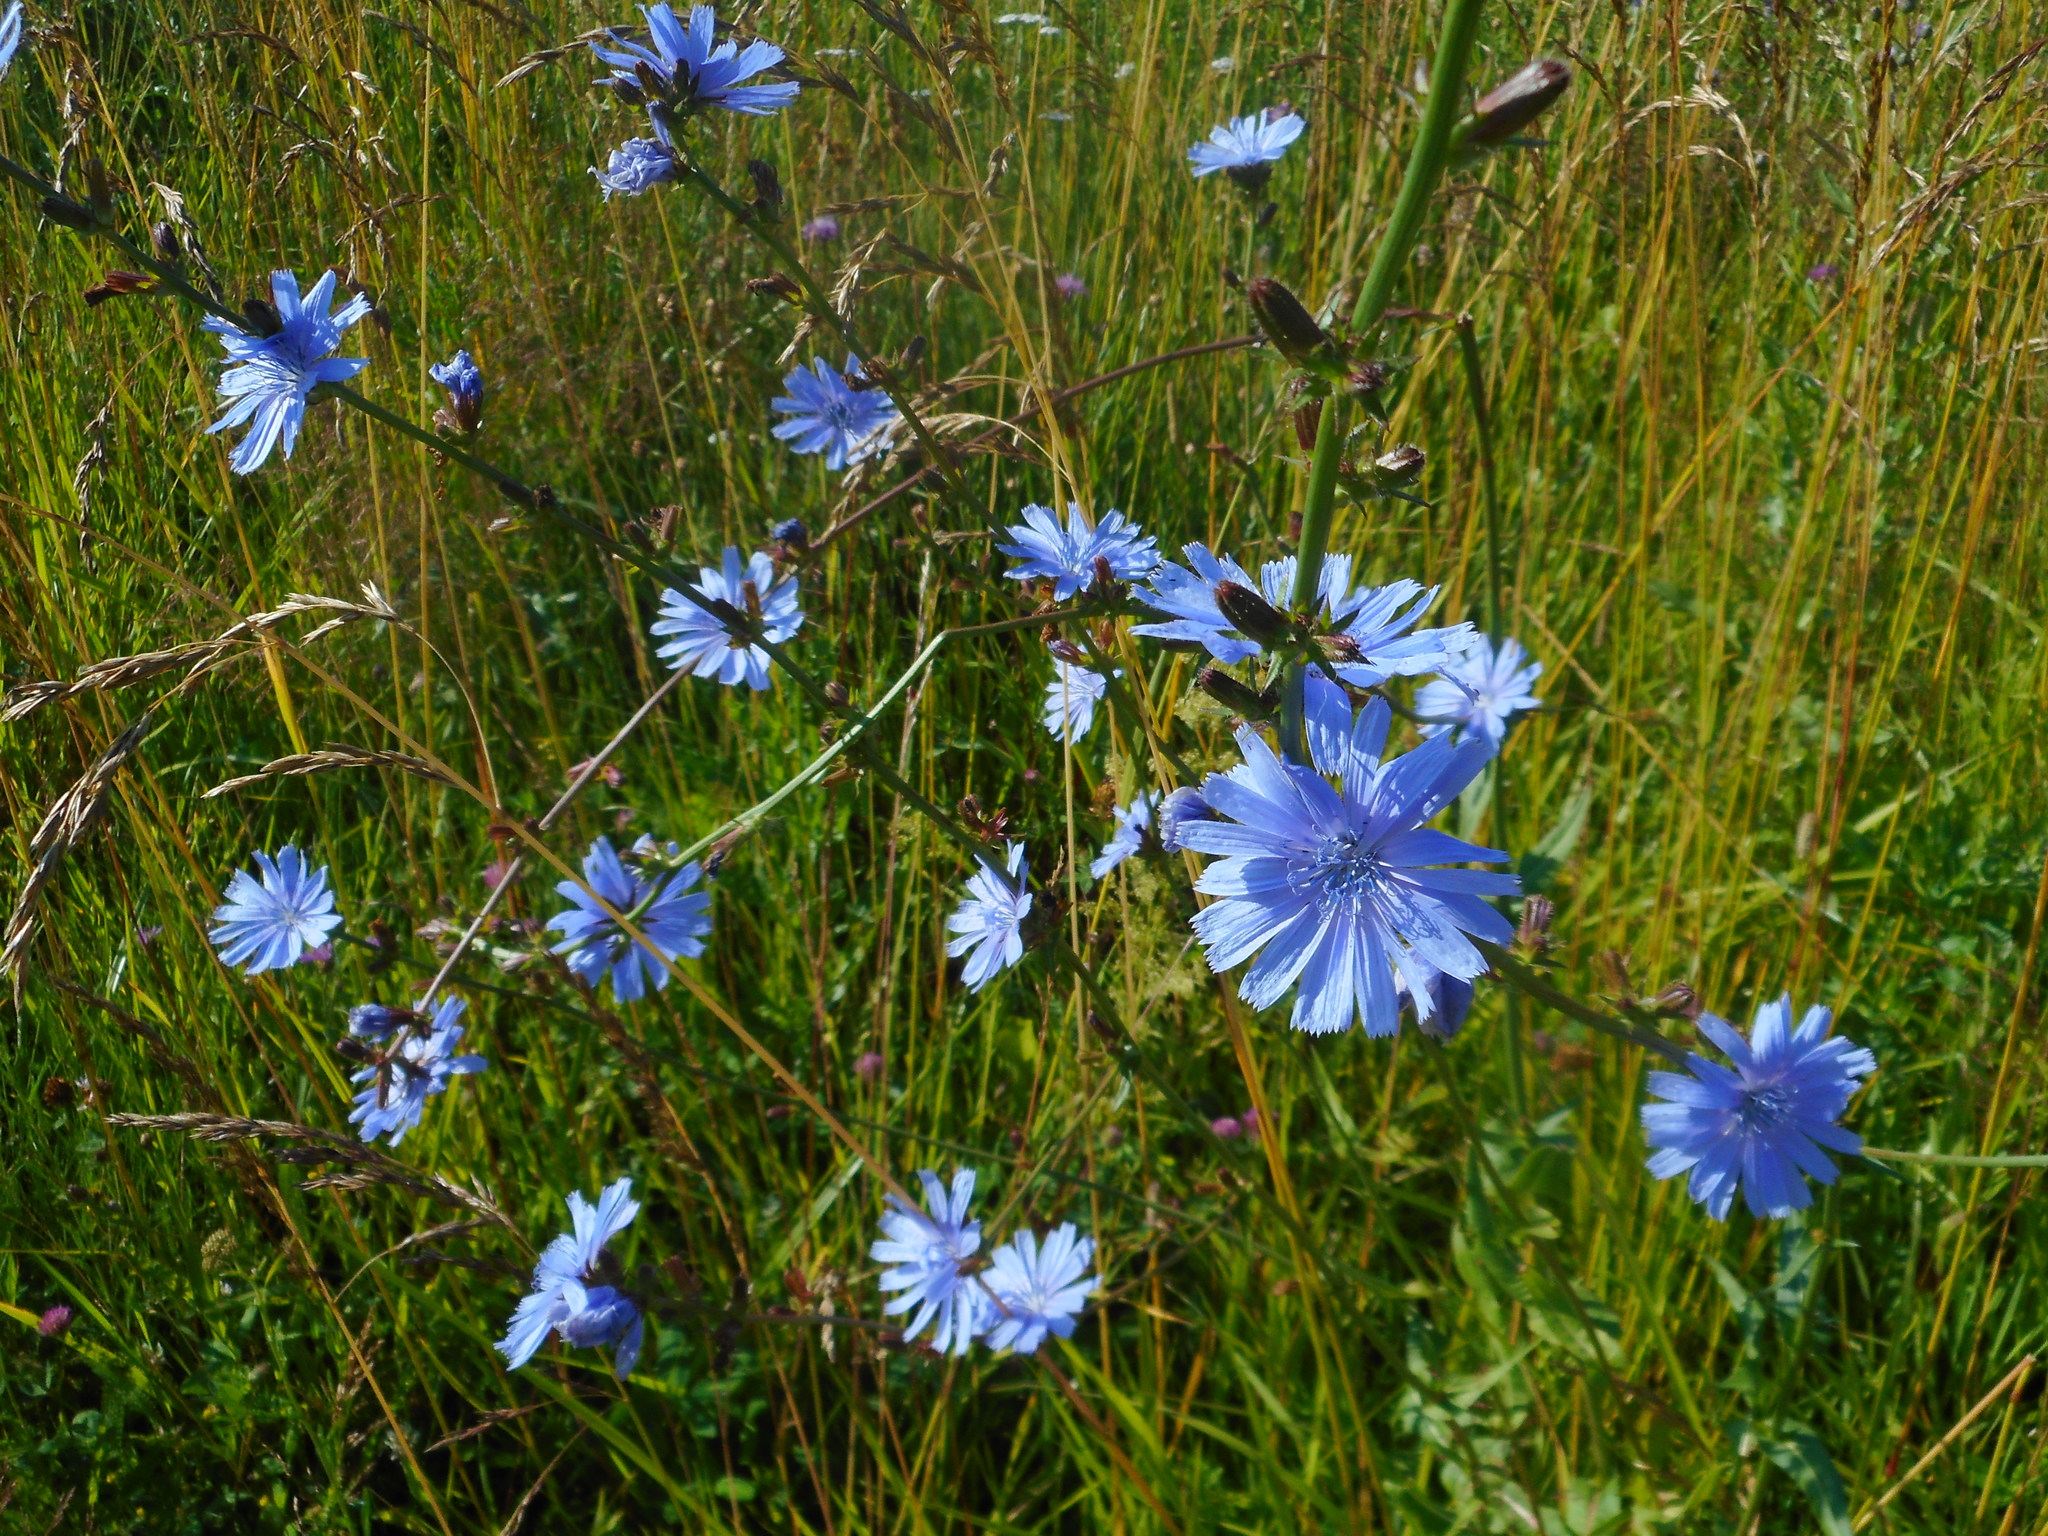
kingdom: Plantae
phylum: Tracheophyta
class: Magnoliopsida
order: Asterales
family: Asteraceae
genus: Cichorium
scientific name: Cichorium intybus
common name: Chicory
